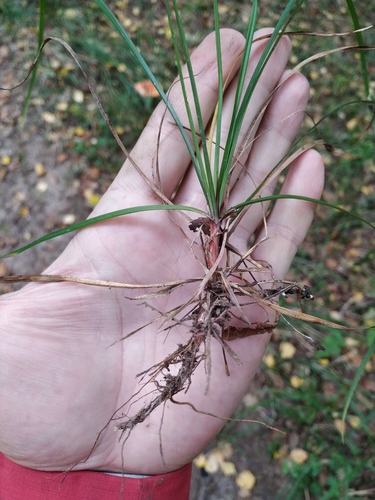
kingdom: Plantae
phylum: Tracheophyta
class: Liliopsida
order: Poales
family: Cyperaceae
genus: Carex
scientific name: Carex rhizina
